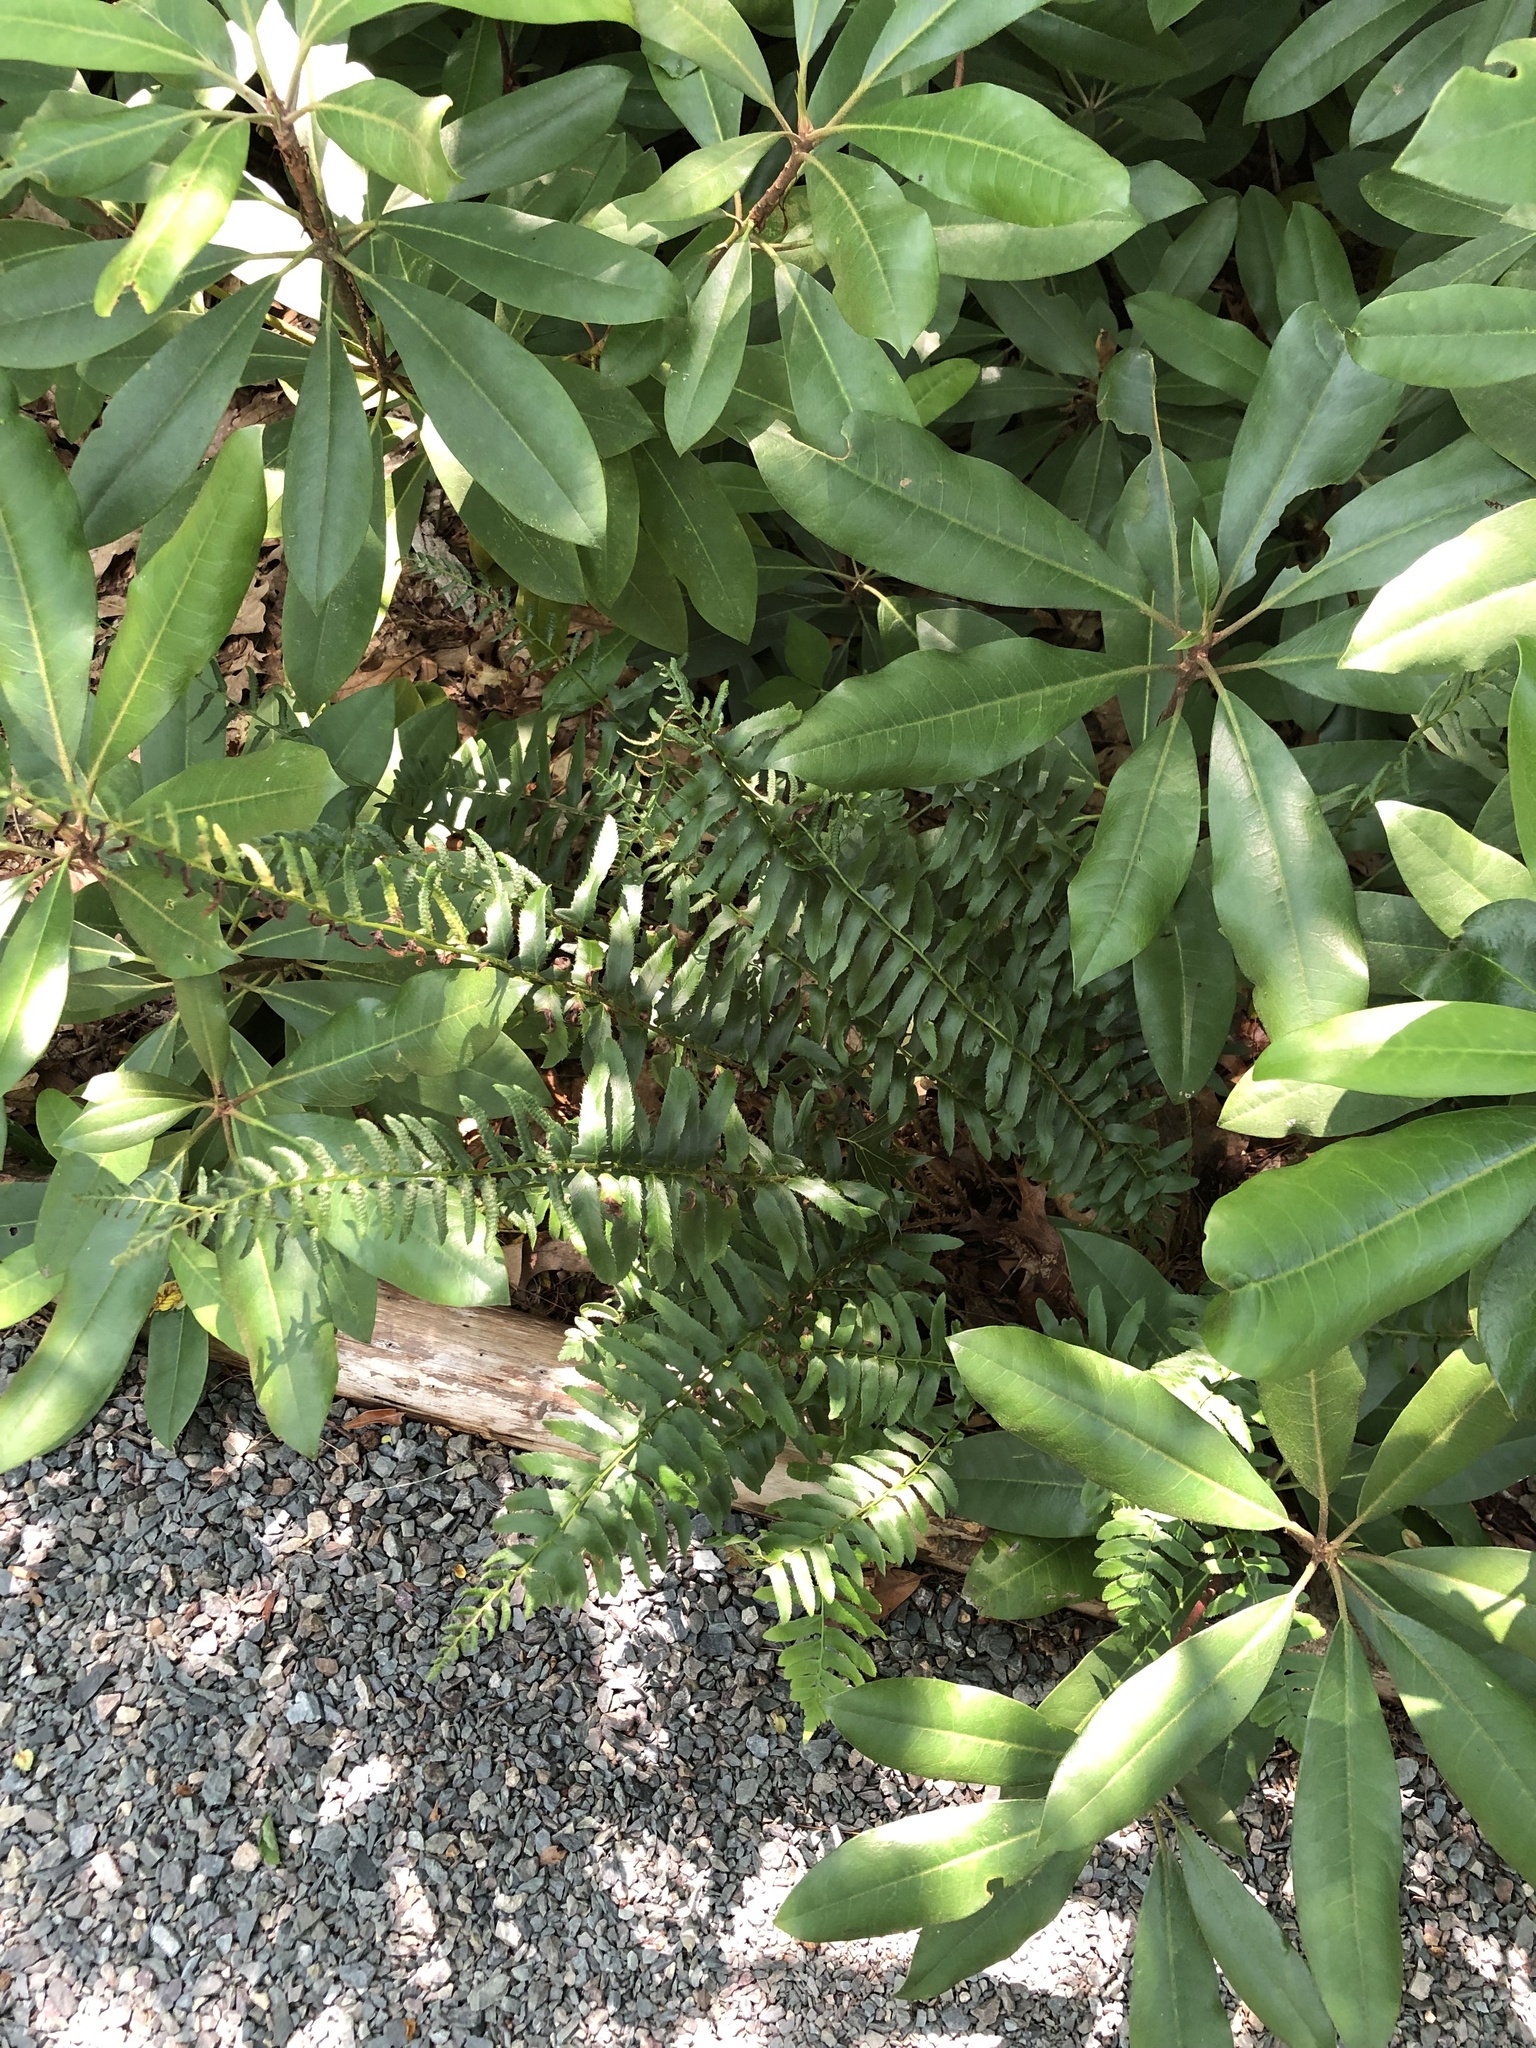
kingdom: Plantae
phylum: Tracheophyta
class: Polypodiopsida
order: Polypodiales
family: Dryopteridaceae
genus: Polystichum
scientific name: Polystichum acrostichoides
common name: Christmas fern
